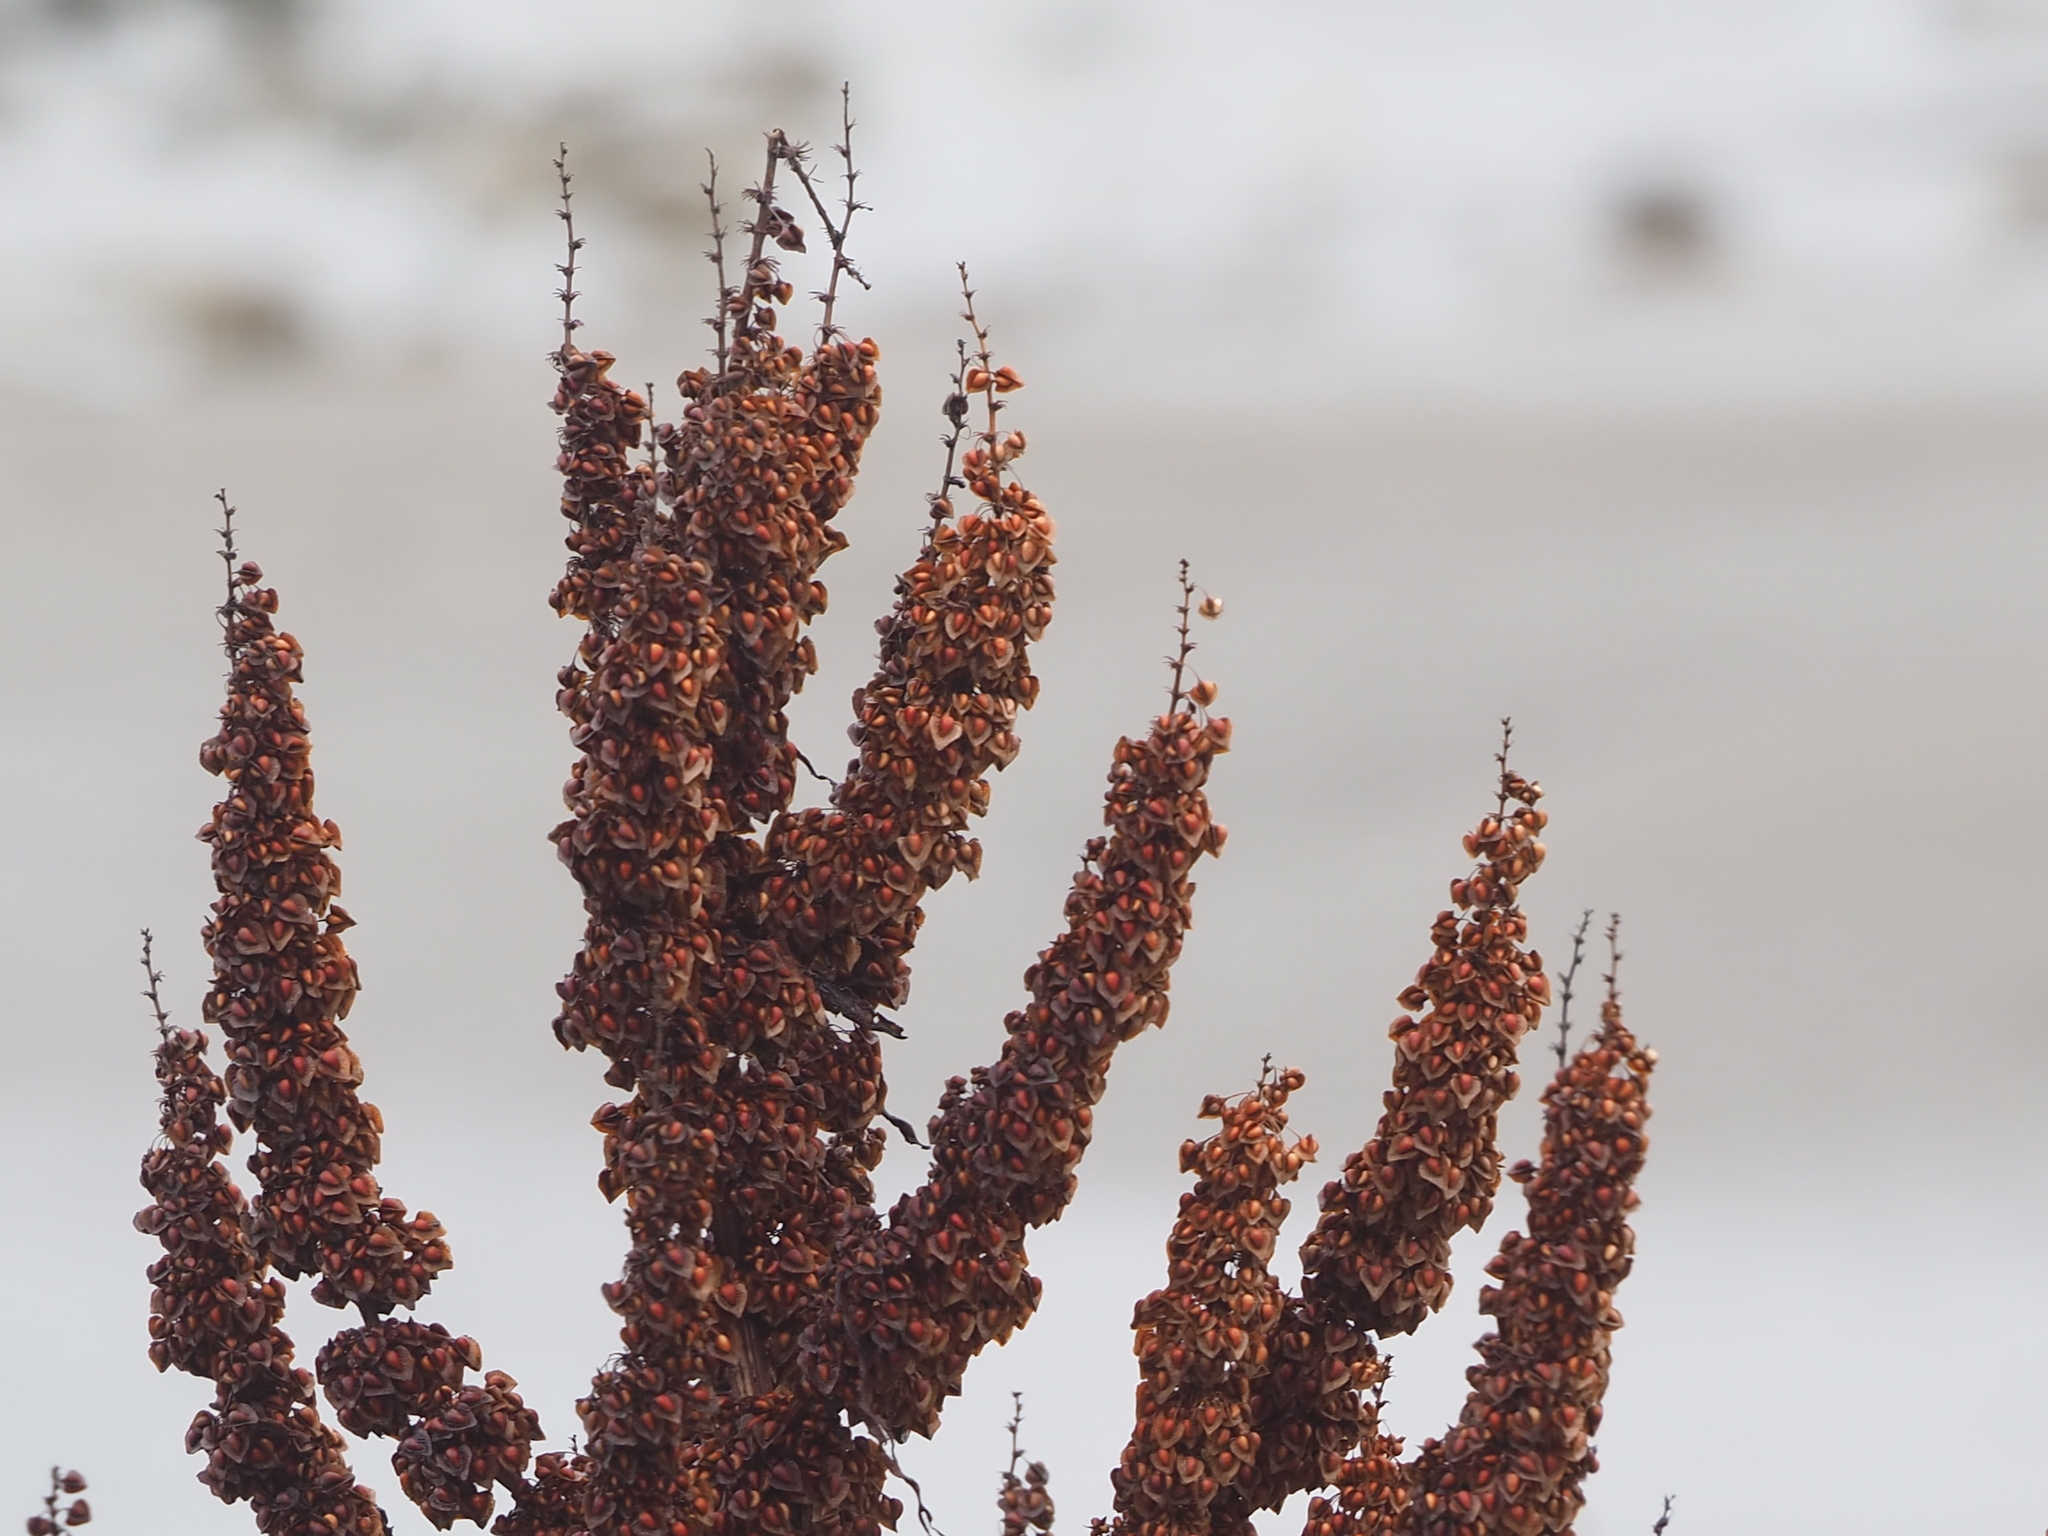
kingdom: Plantae
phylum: Tracheophyta
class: Magnoliopsida
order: Caryophyllales
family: Polygonaceae
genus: Rumex
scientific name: Rumex obtusifolius
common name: Bitter dock
